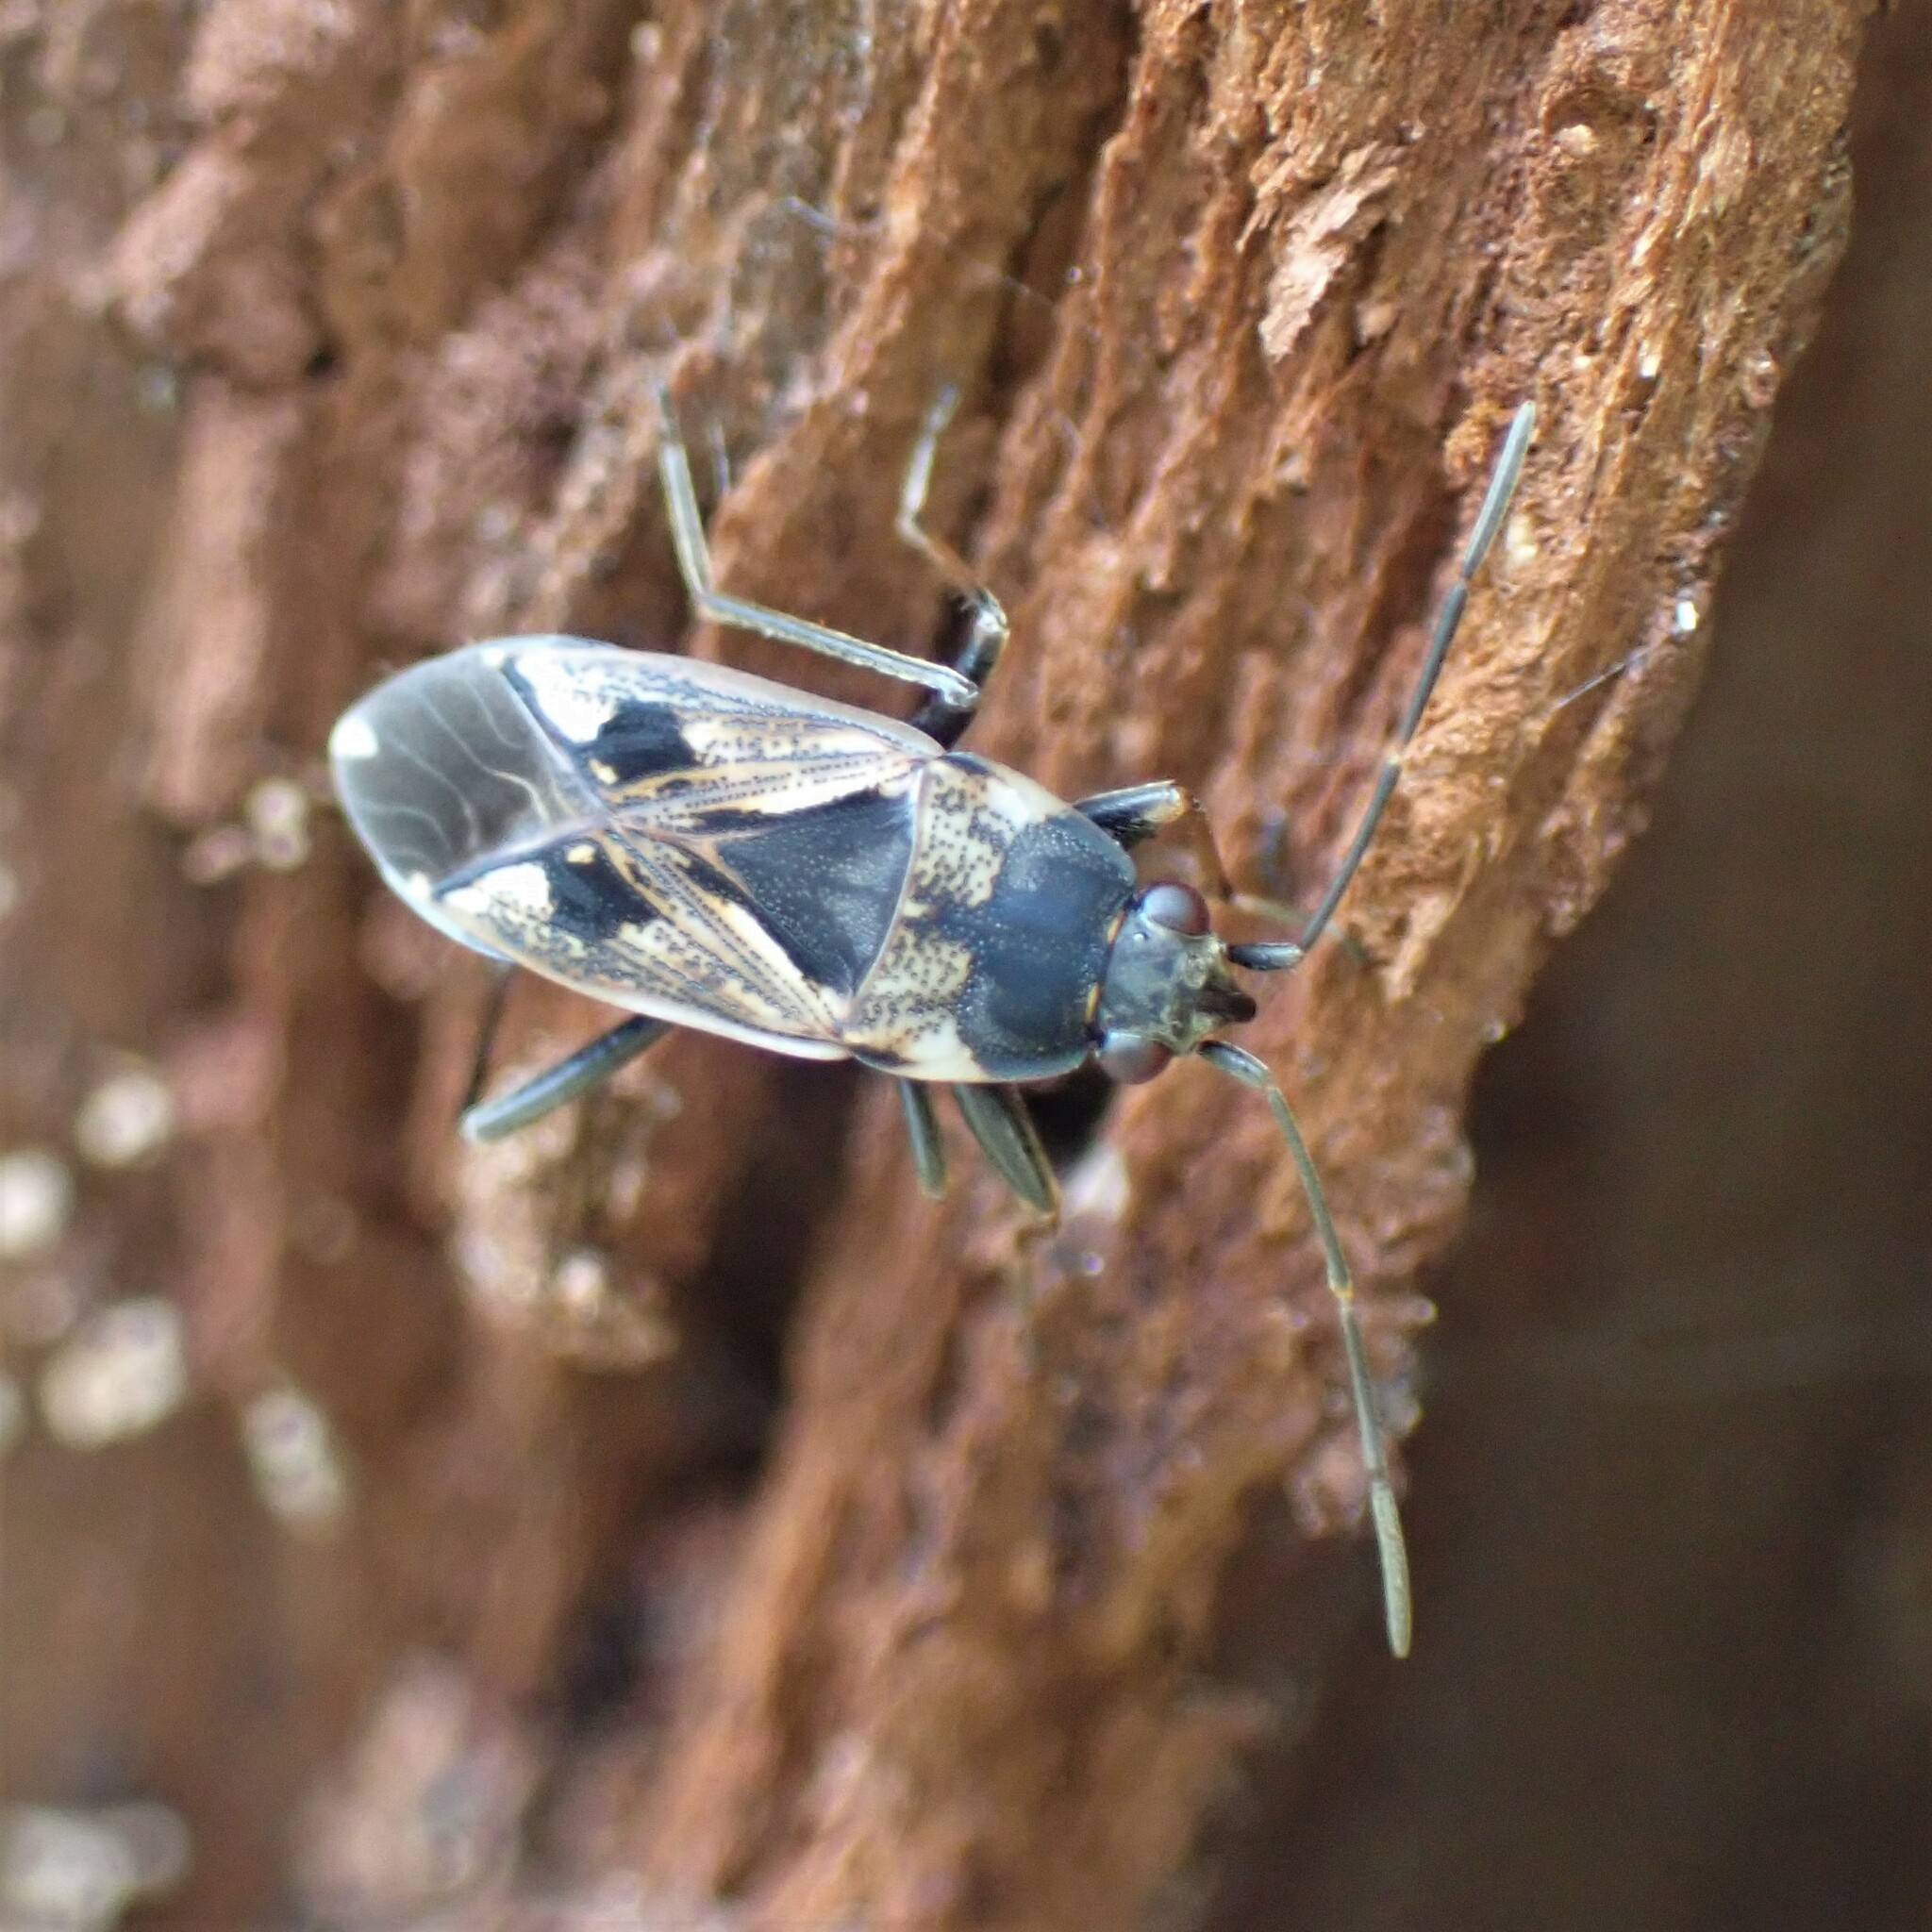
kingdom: Animalia
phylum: Arthropoda
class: Insecta
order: Hemiptera
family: Rhyparochromidae
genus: Rhyparochromus
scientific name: Rhyparochromus vulgaris
